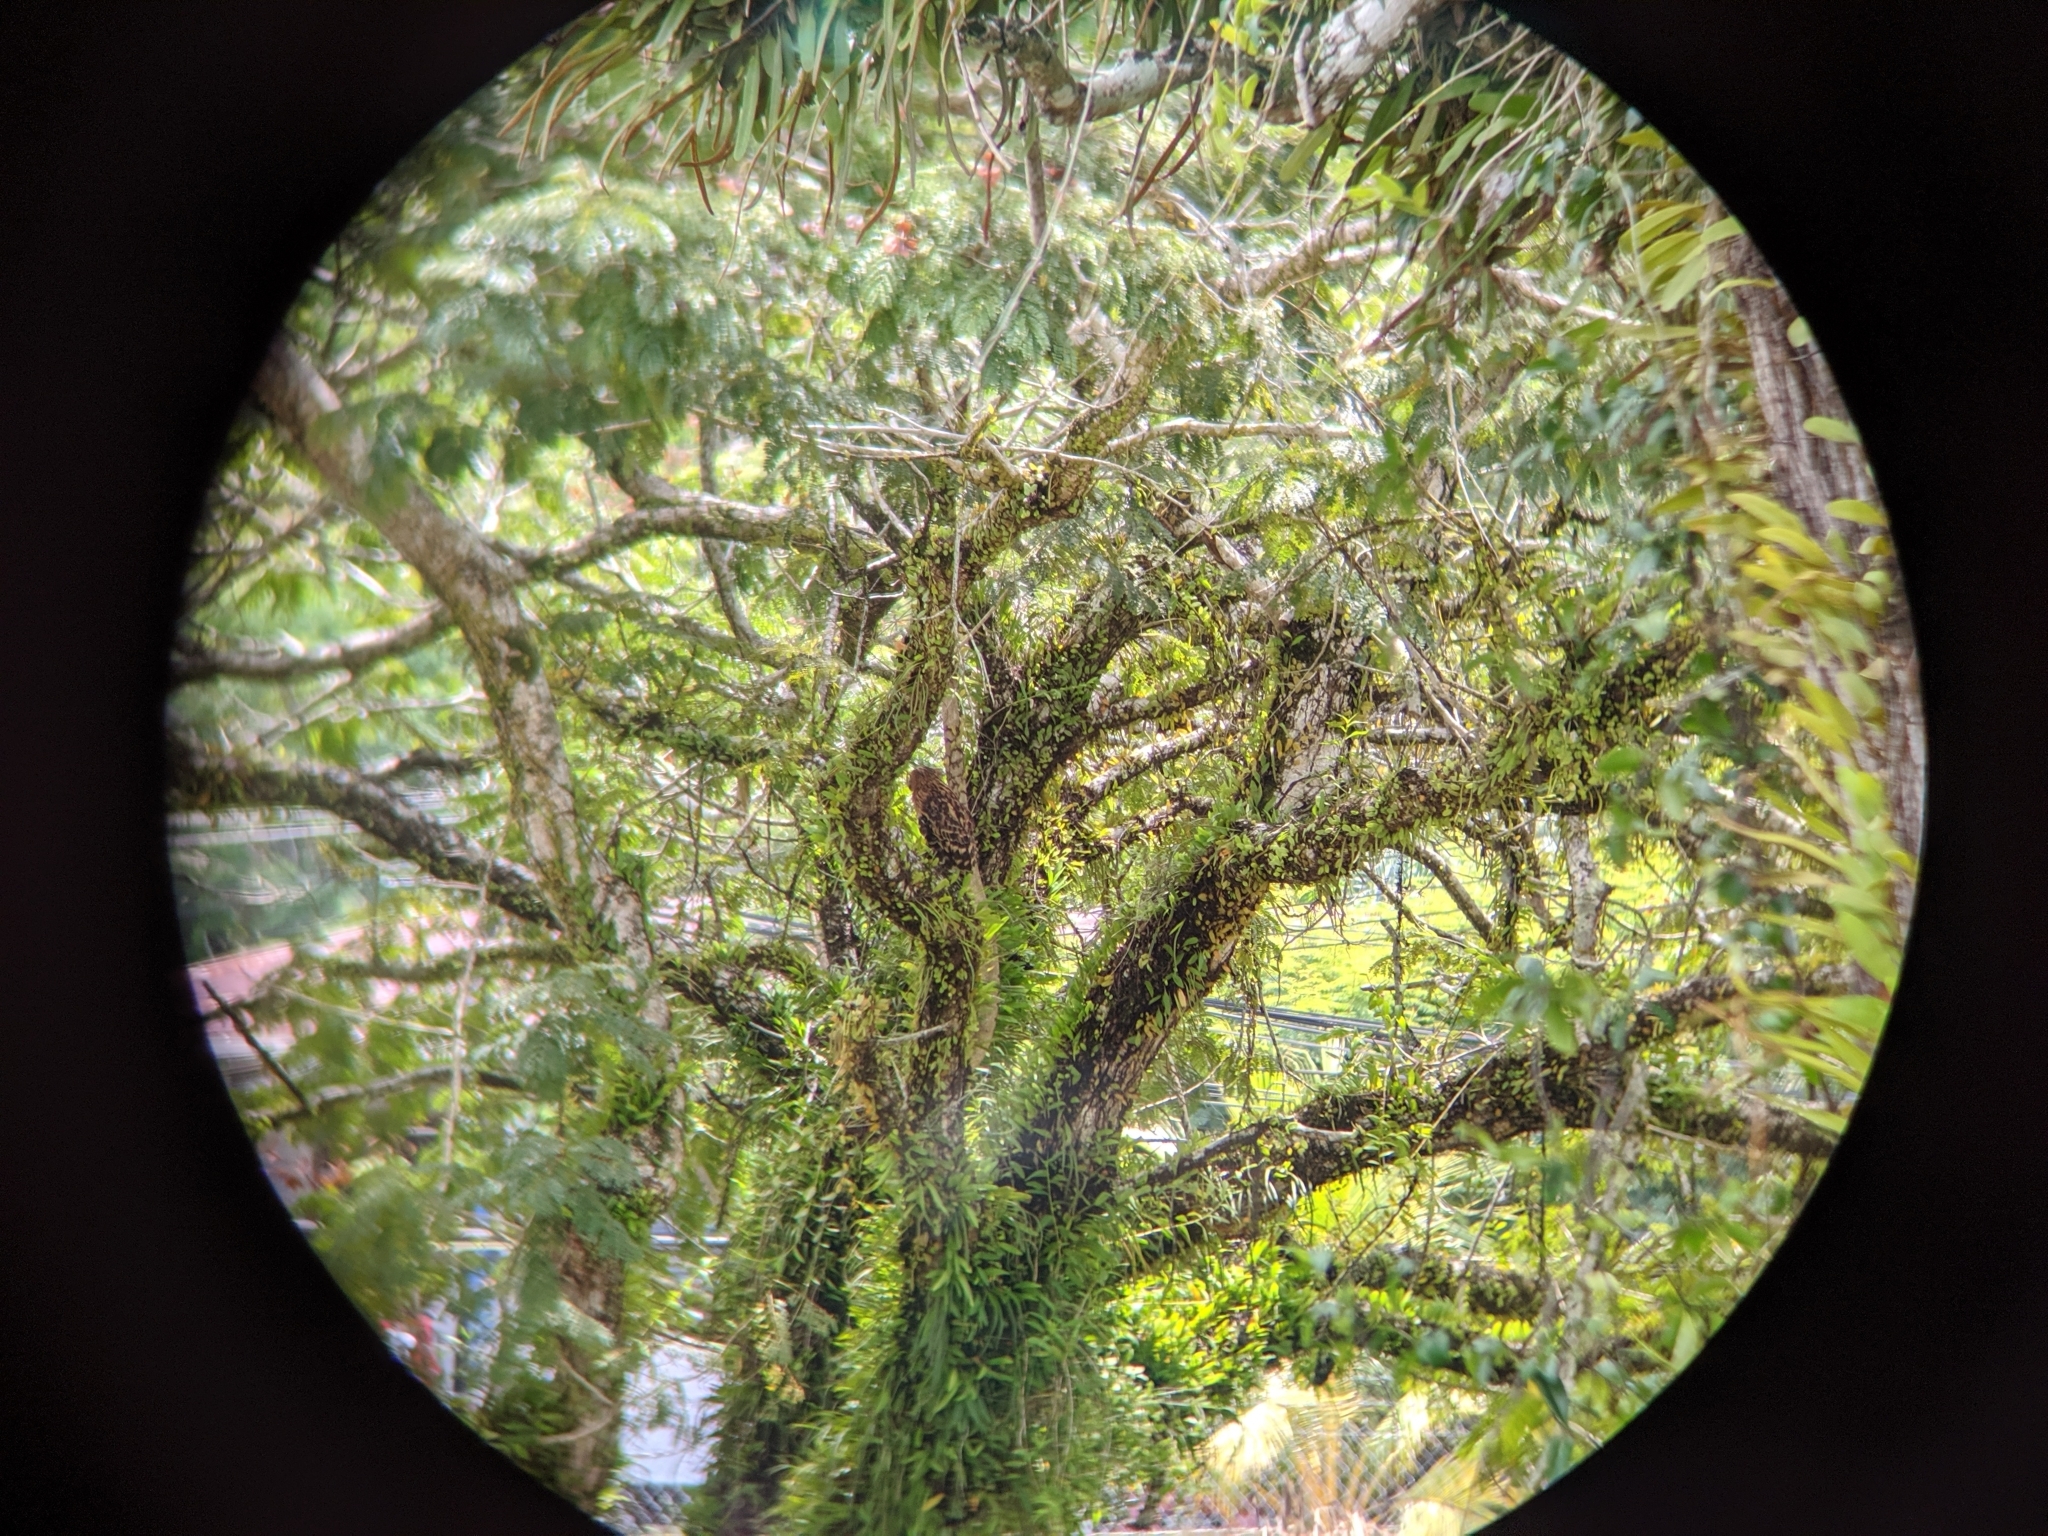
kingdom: Animalia
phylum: Chordata
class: Aves
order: Strigiformes
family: Strigidae
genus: Ketupa
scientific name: Ketupa ketupu
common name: Buffy fish-owl
